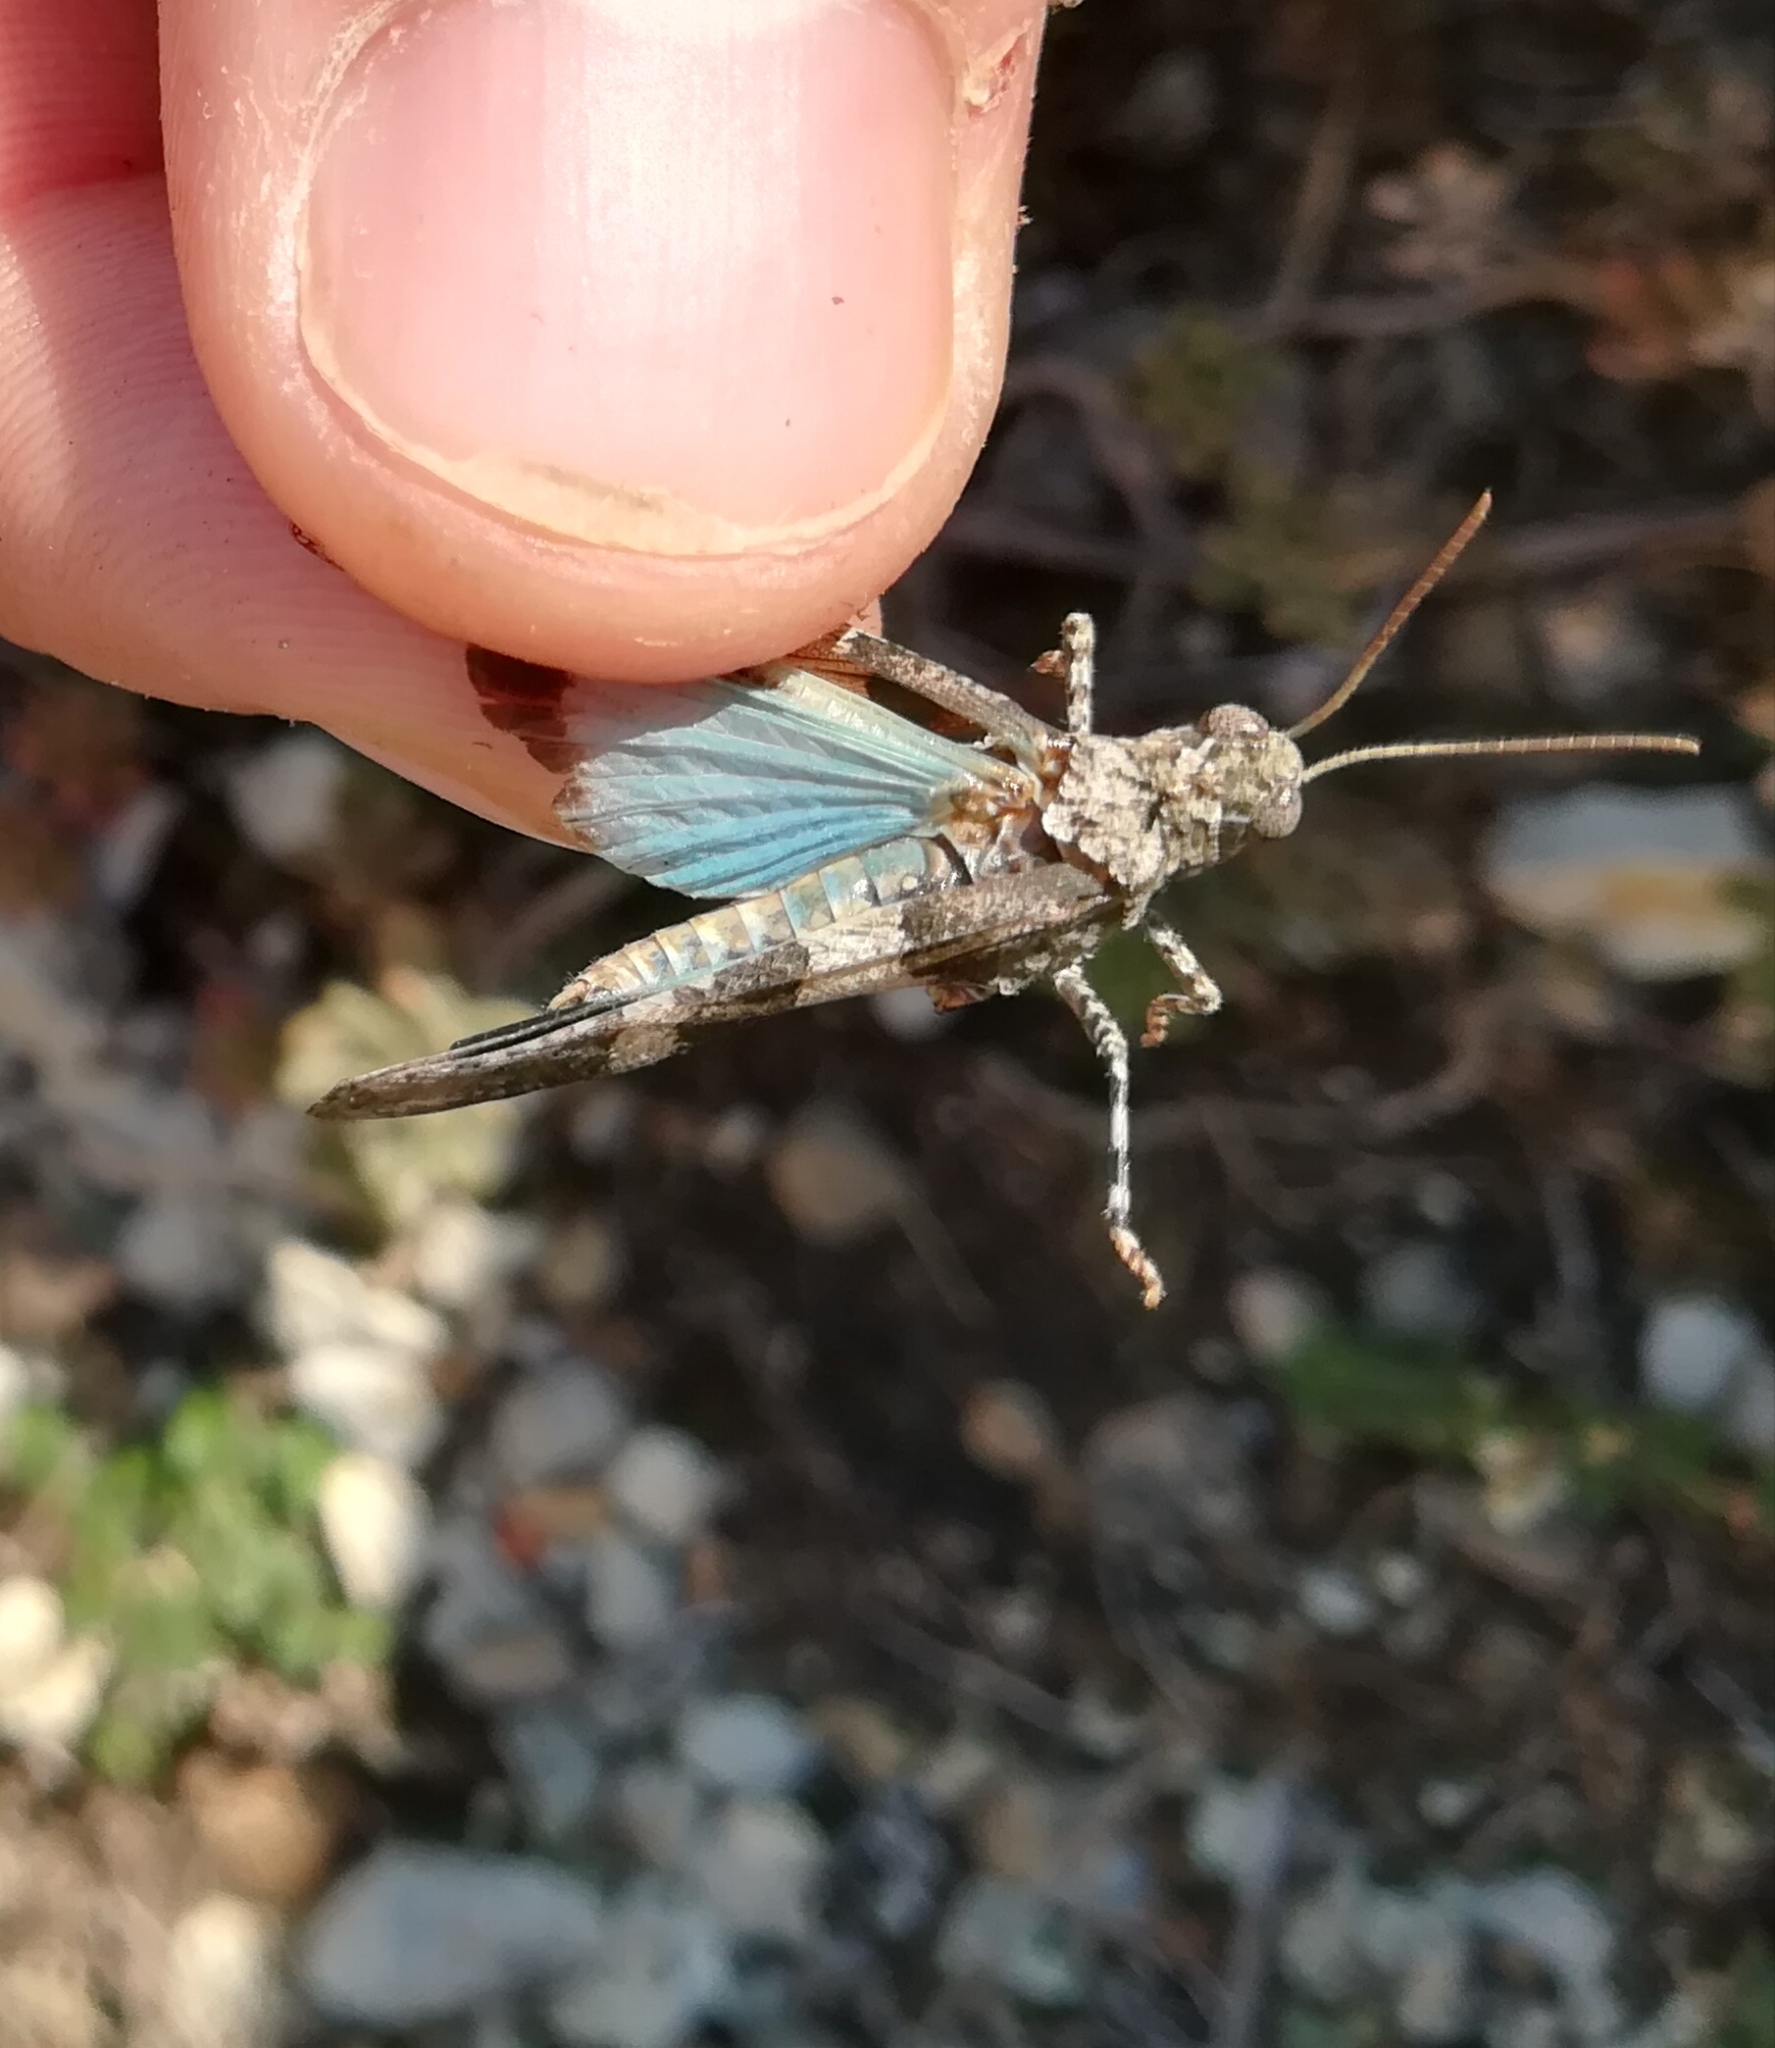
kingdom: Animalia
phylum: Arthropoda
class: Insecta
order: Orthoptera
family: Acrididae
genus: Oedipoda
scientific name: Oedipoda caerulescens
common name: Blue-winged grasshopper
